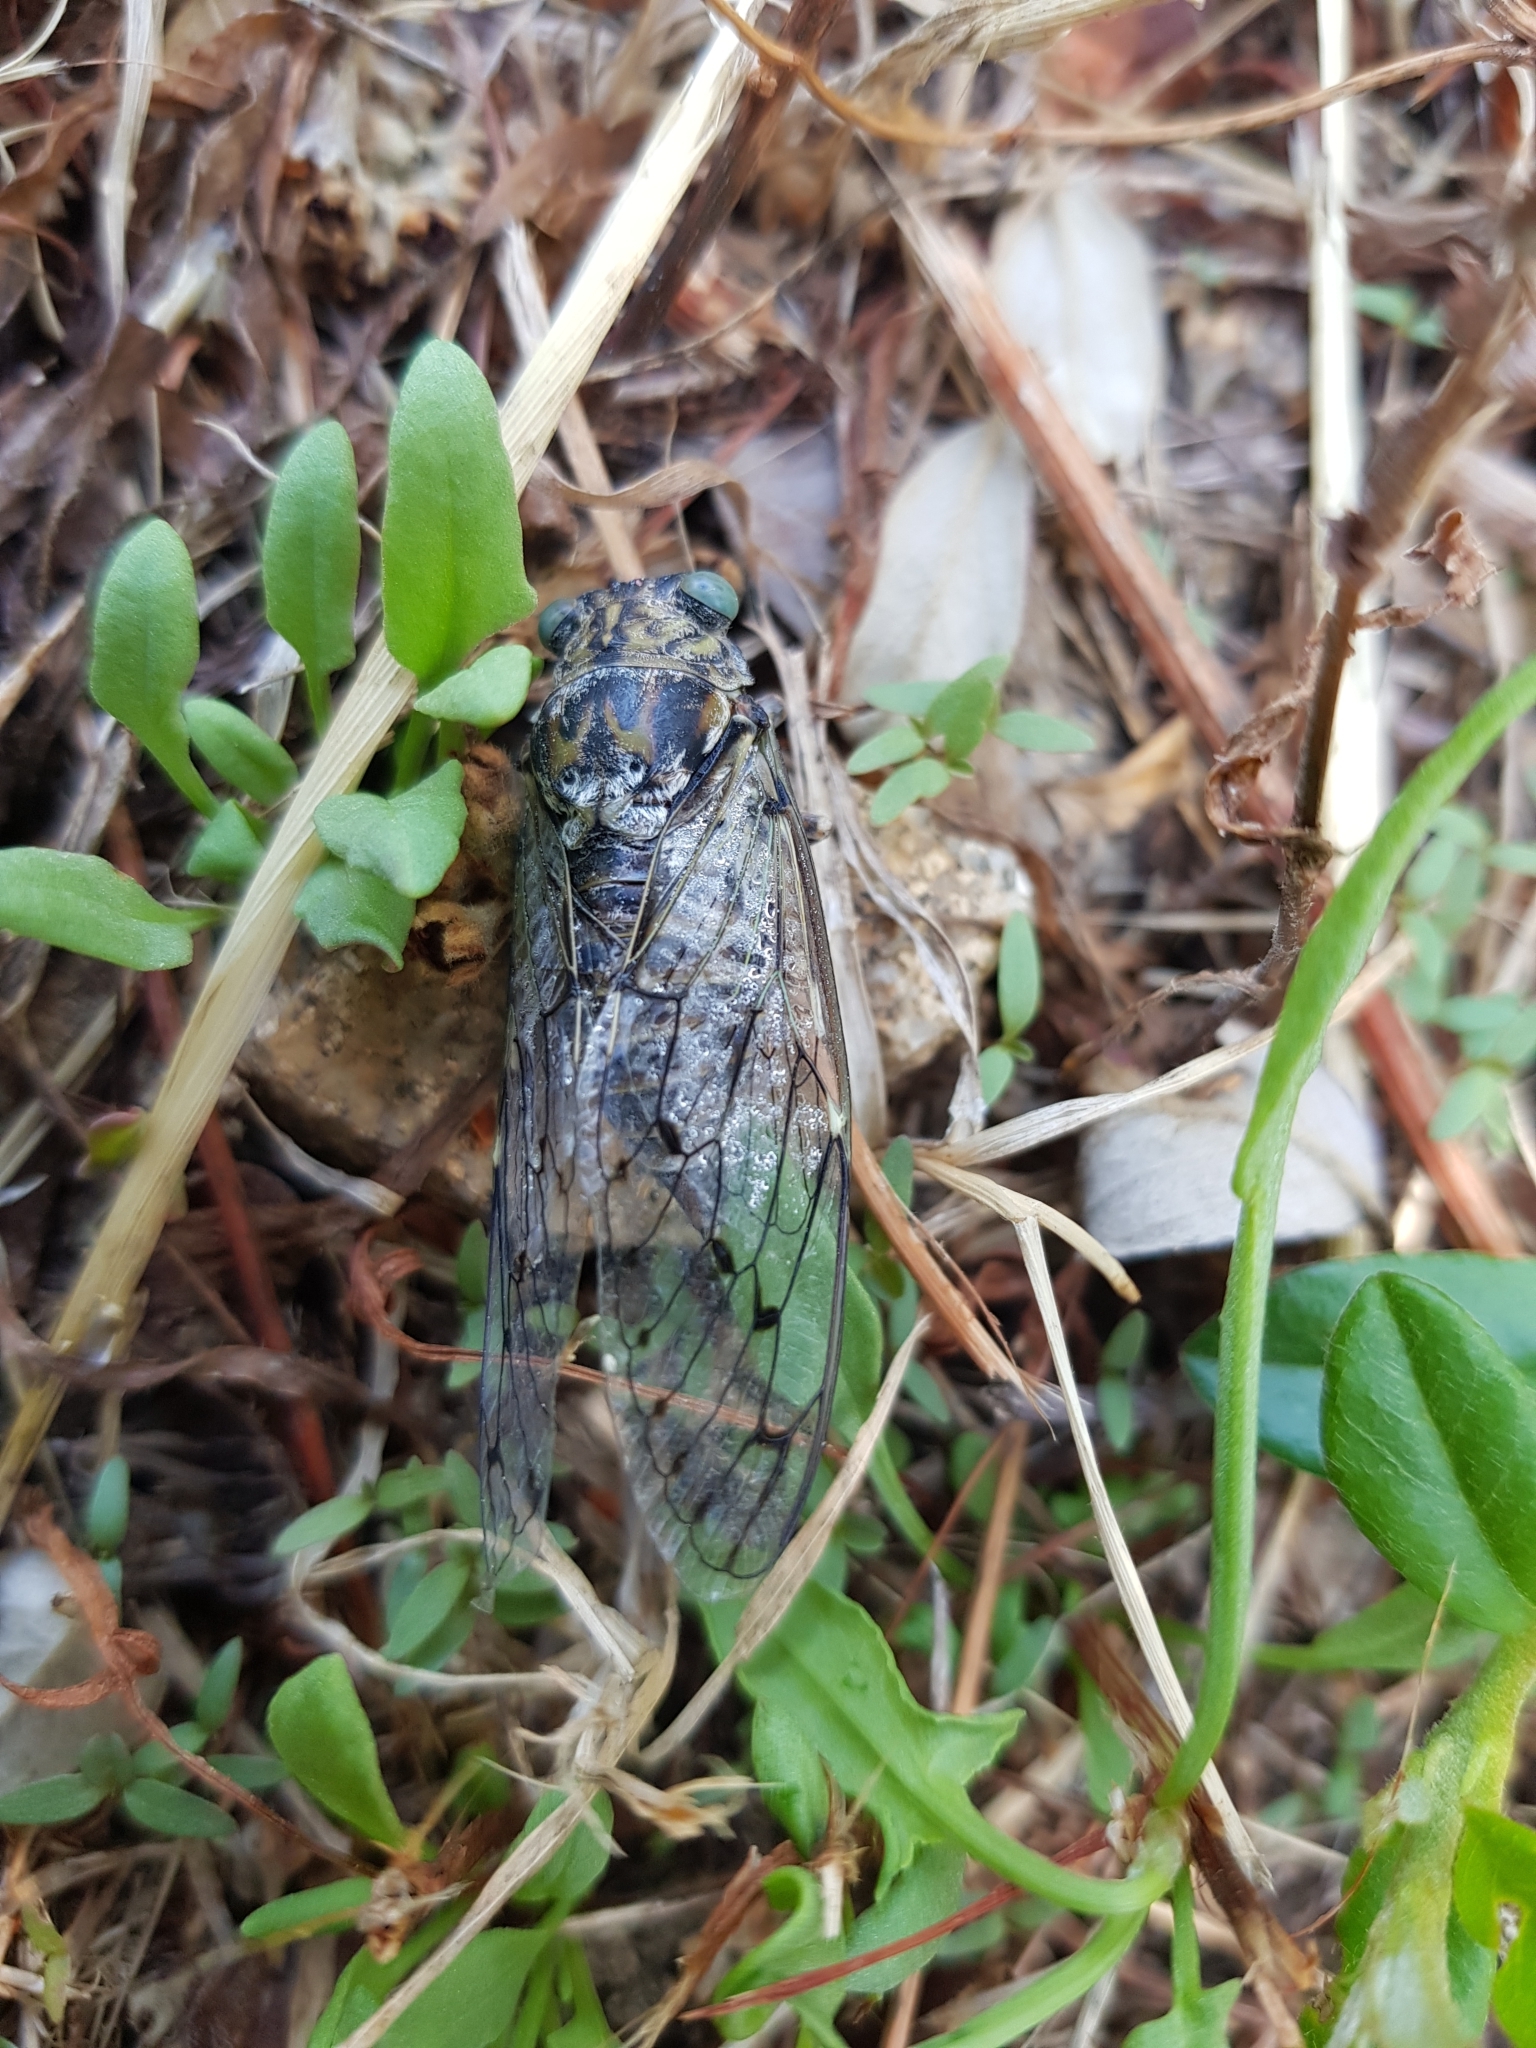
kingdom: Animalia
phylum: Arthropoda
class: Insecta
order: Hemiptera
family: Cicadidae
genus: Cicada
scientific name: Cicada orni
